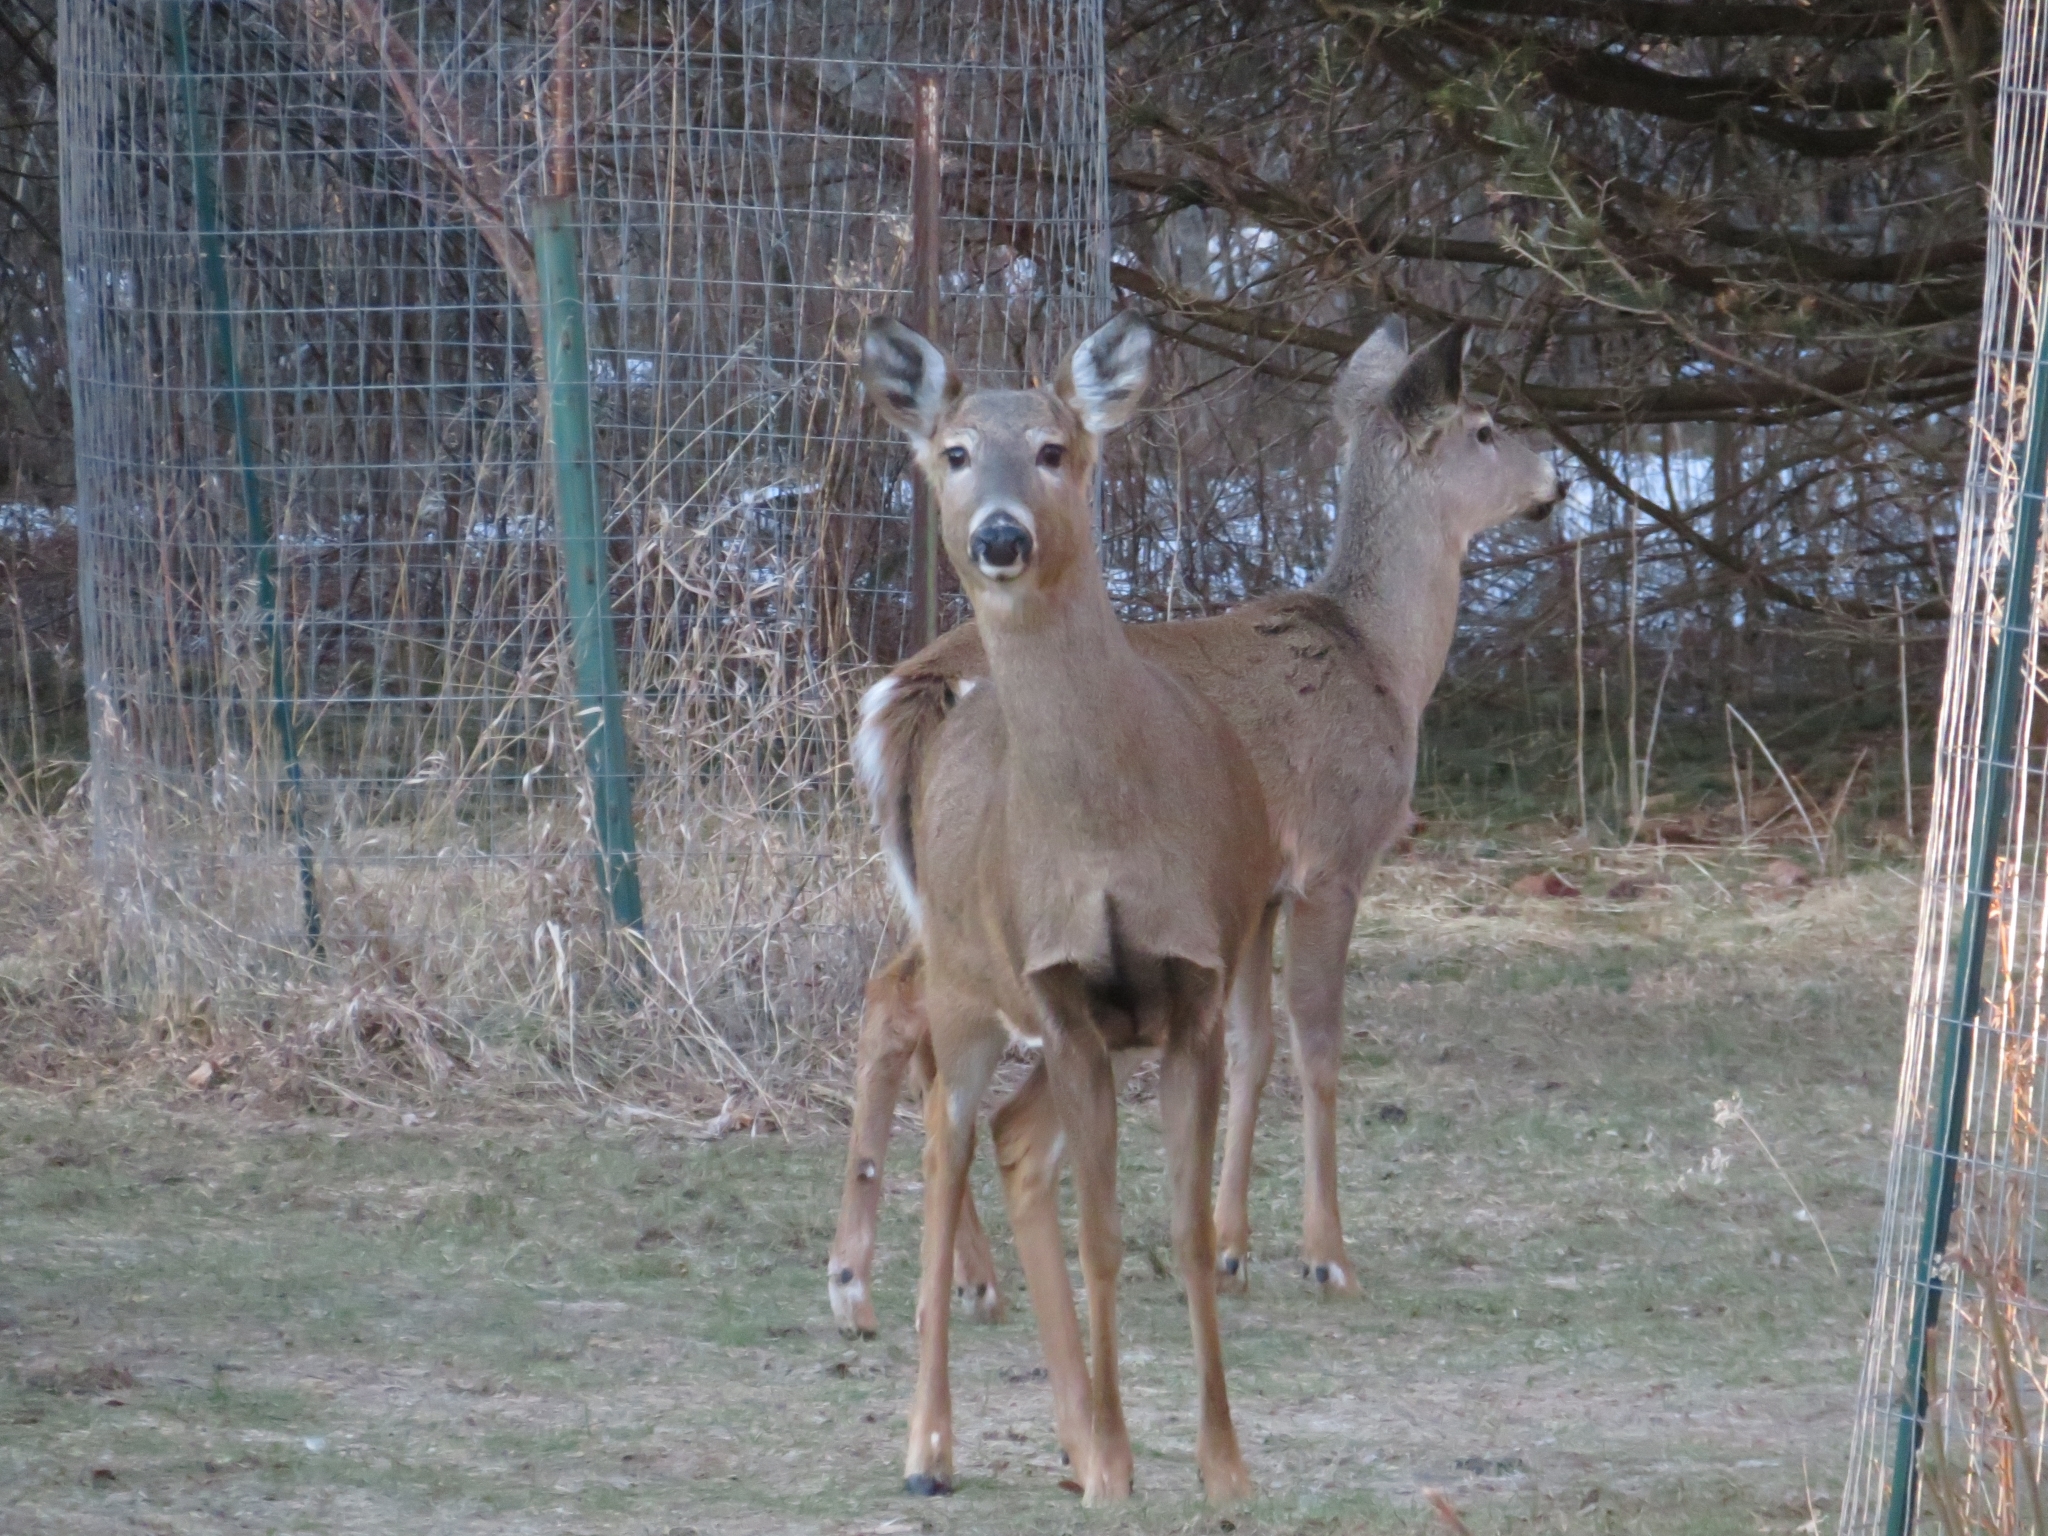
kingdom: Animalia
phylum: Chordata
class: Mammalia
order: Artiodactyla
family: Cervidae
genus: Odocoileus
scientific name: Odocoileus virginianus
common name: White-tailed deer
